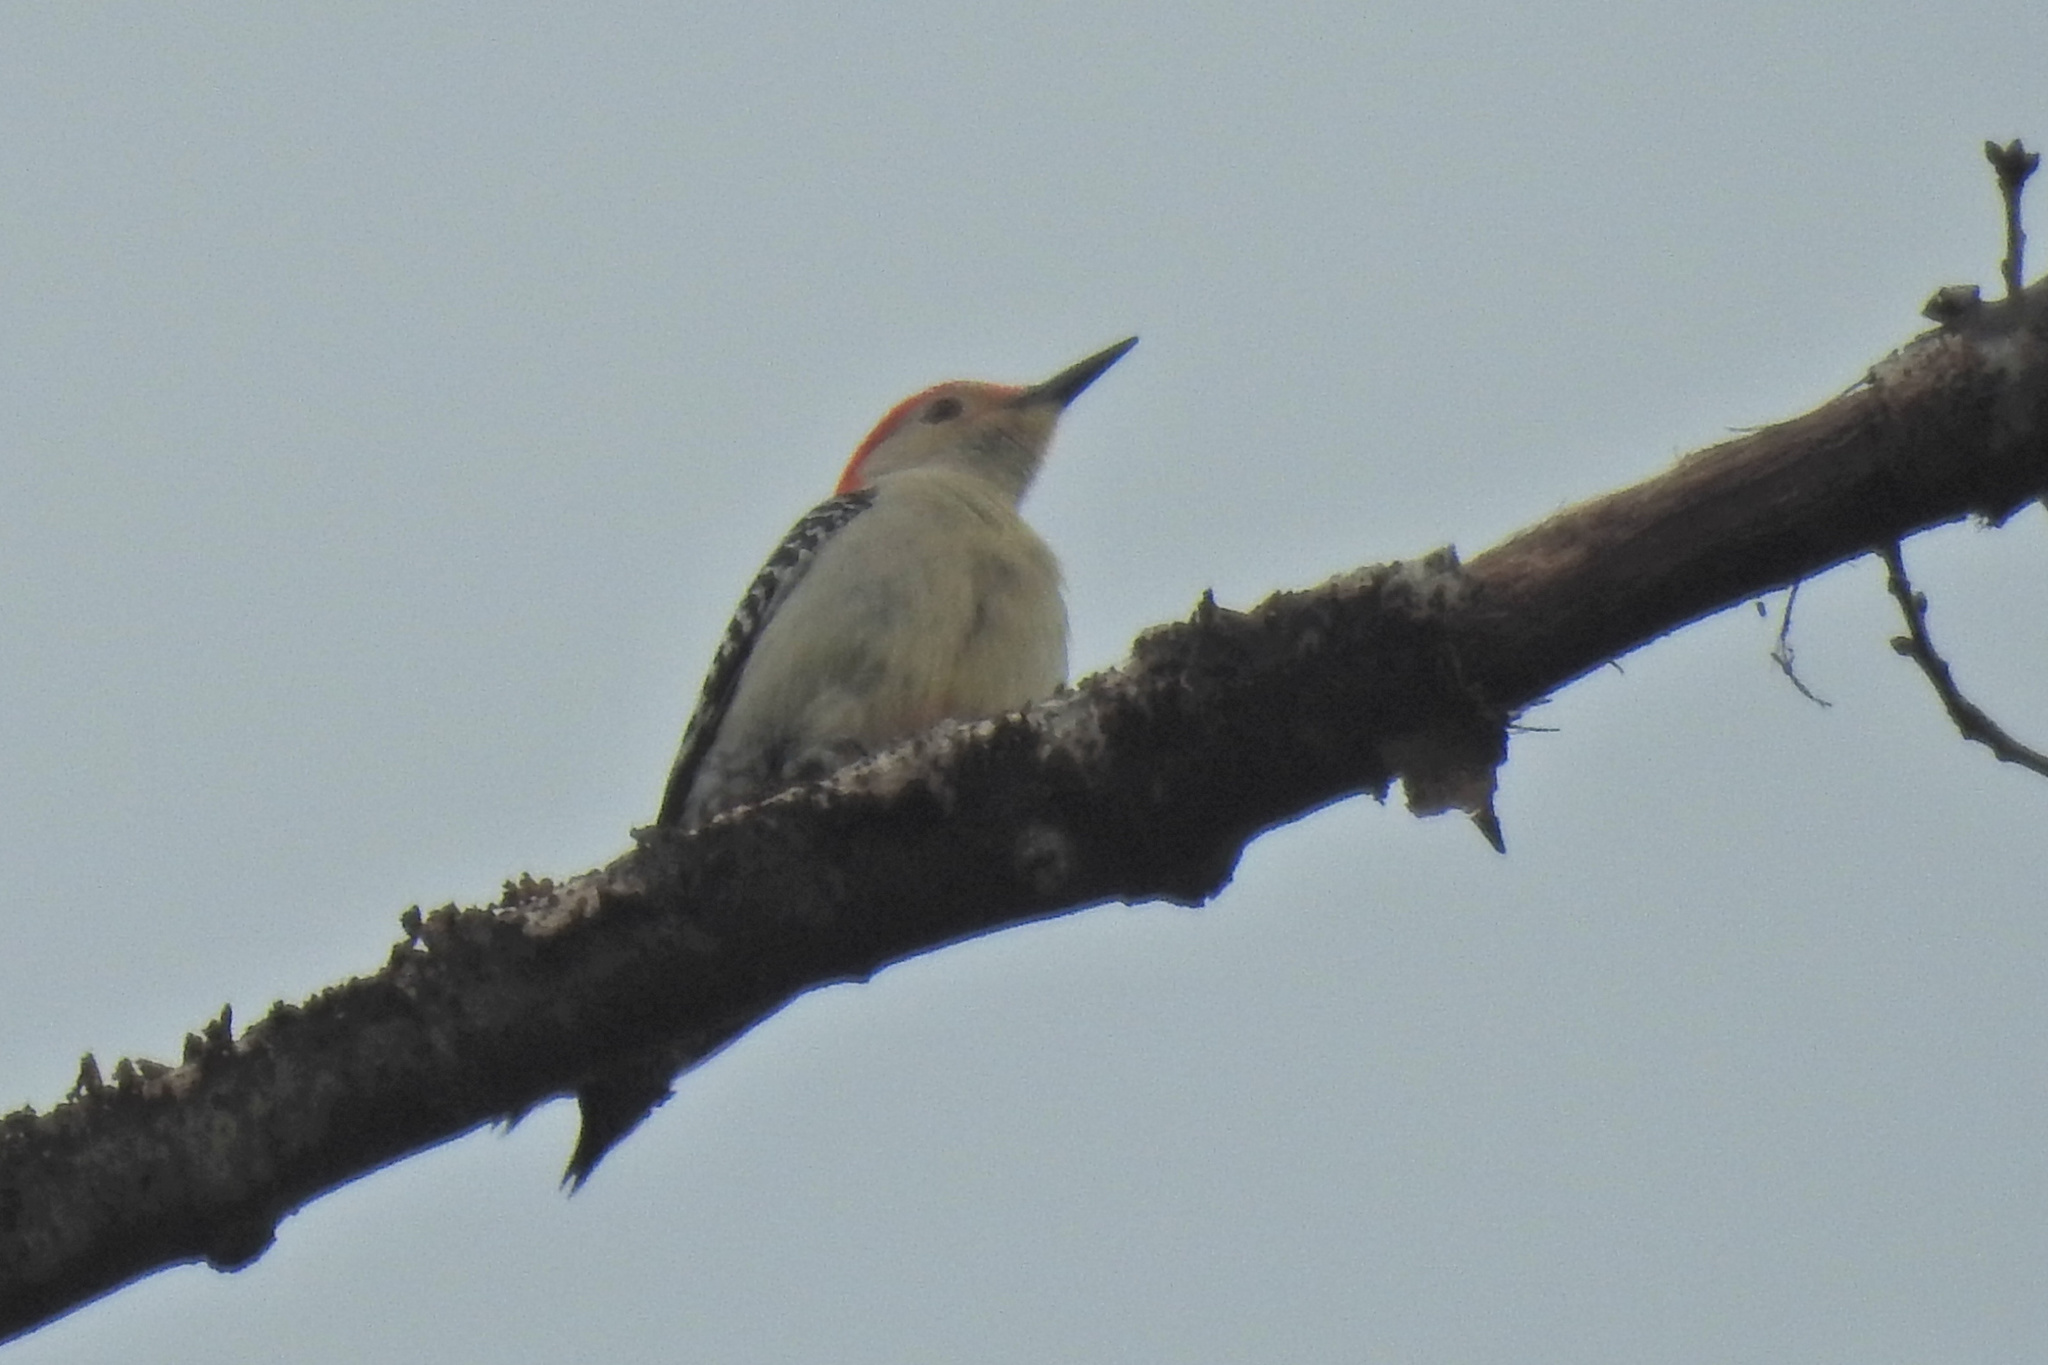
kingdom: Animalia
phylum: Chordata
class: Aves
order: Piciformes
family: Picidae
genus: Melanerpes
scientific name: Melanerpes carolinus
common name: Red-bellied woodpecker
